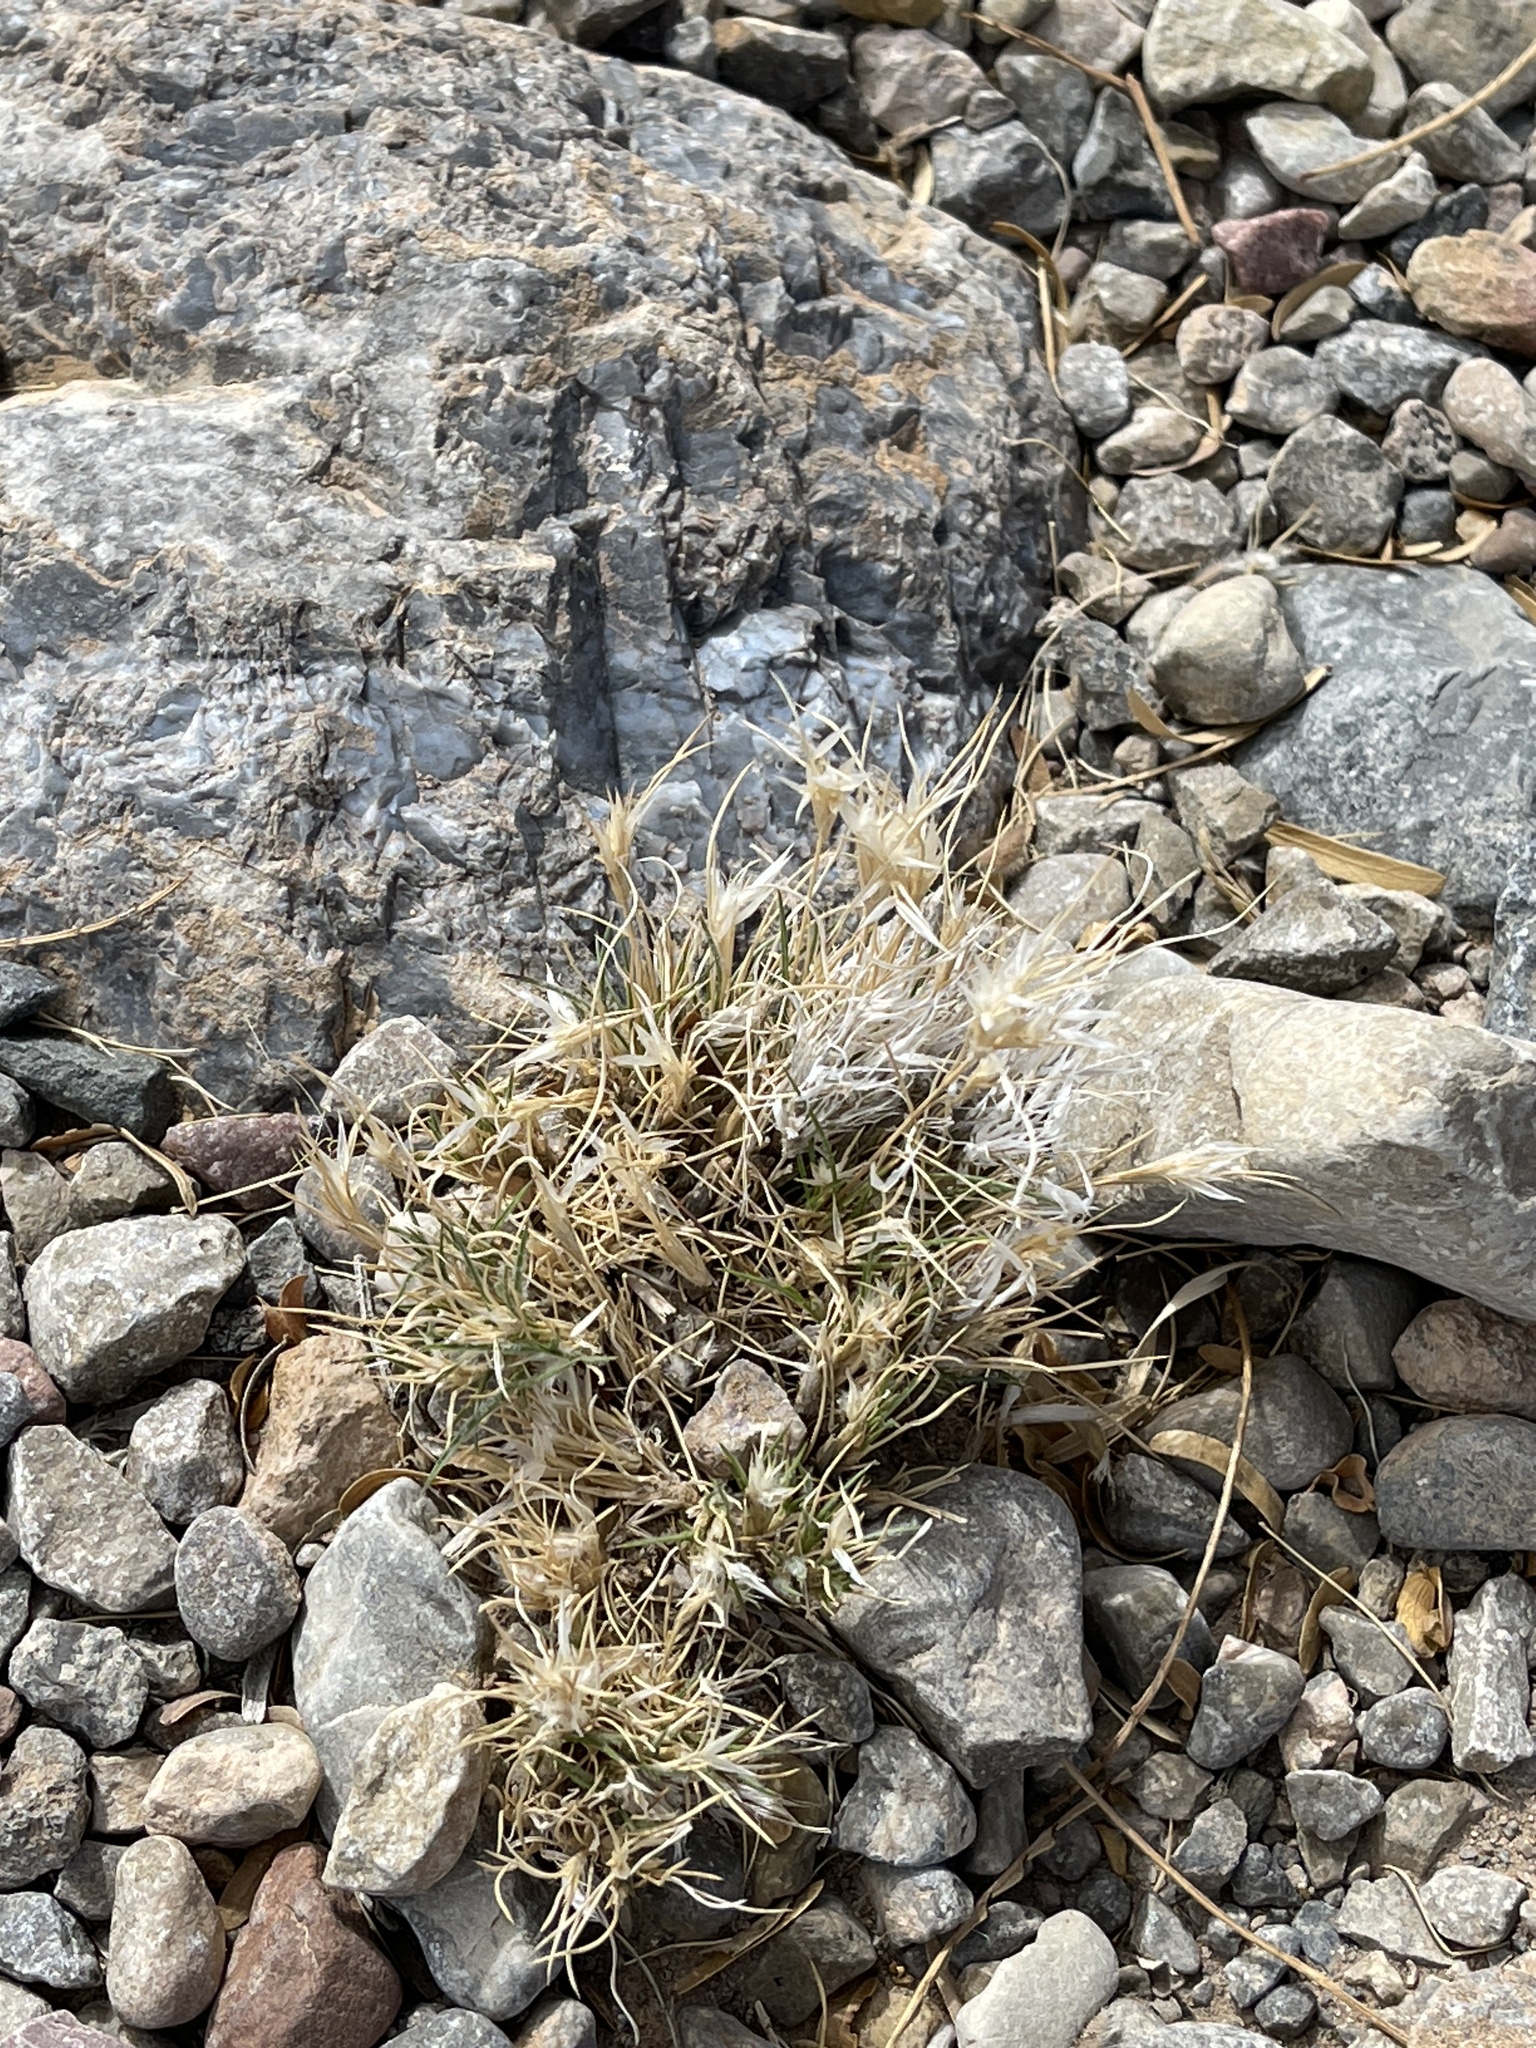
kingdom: Plantae
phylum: Tracheophyta
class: Liliopsida
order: Poales
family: Poaceae
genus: Dasyochloa
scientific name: Dasyochloa pulchella
